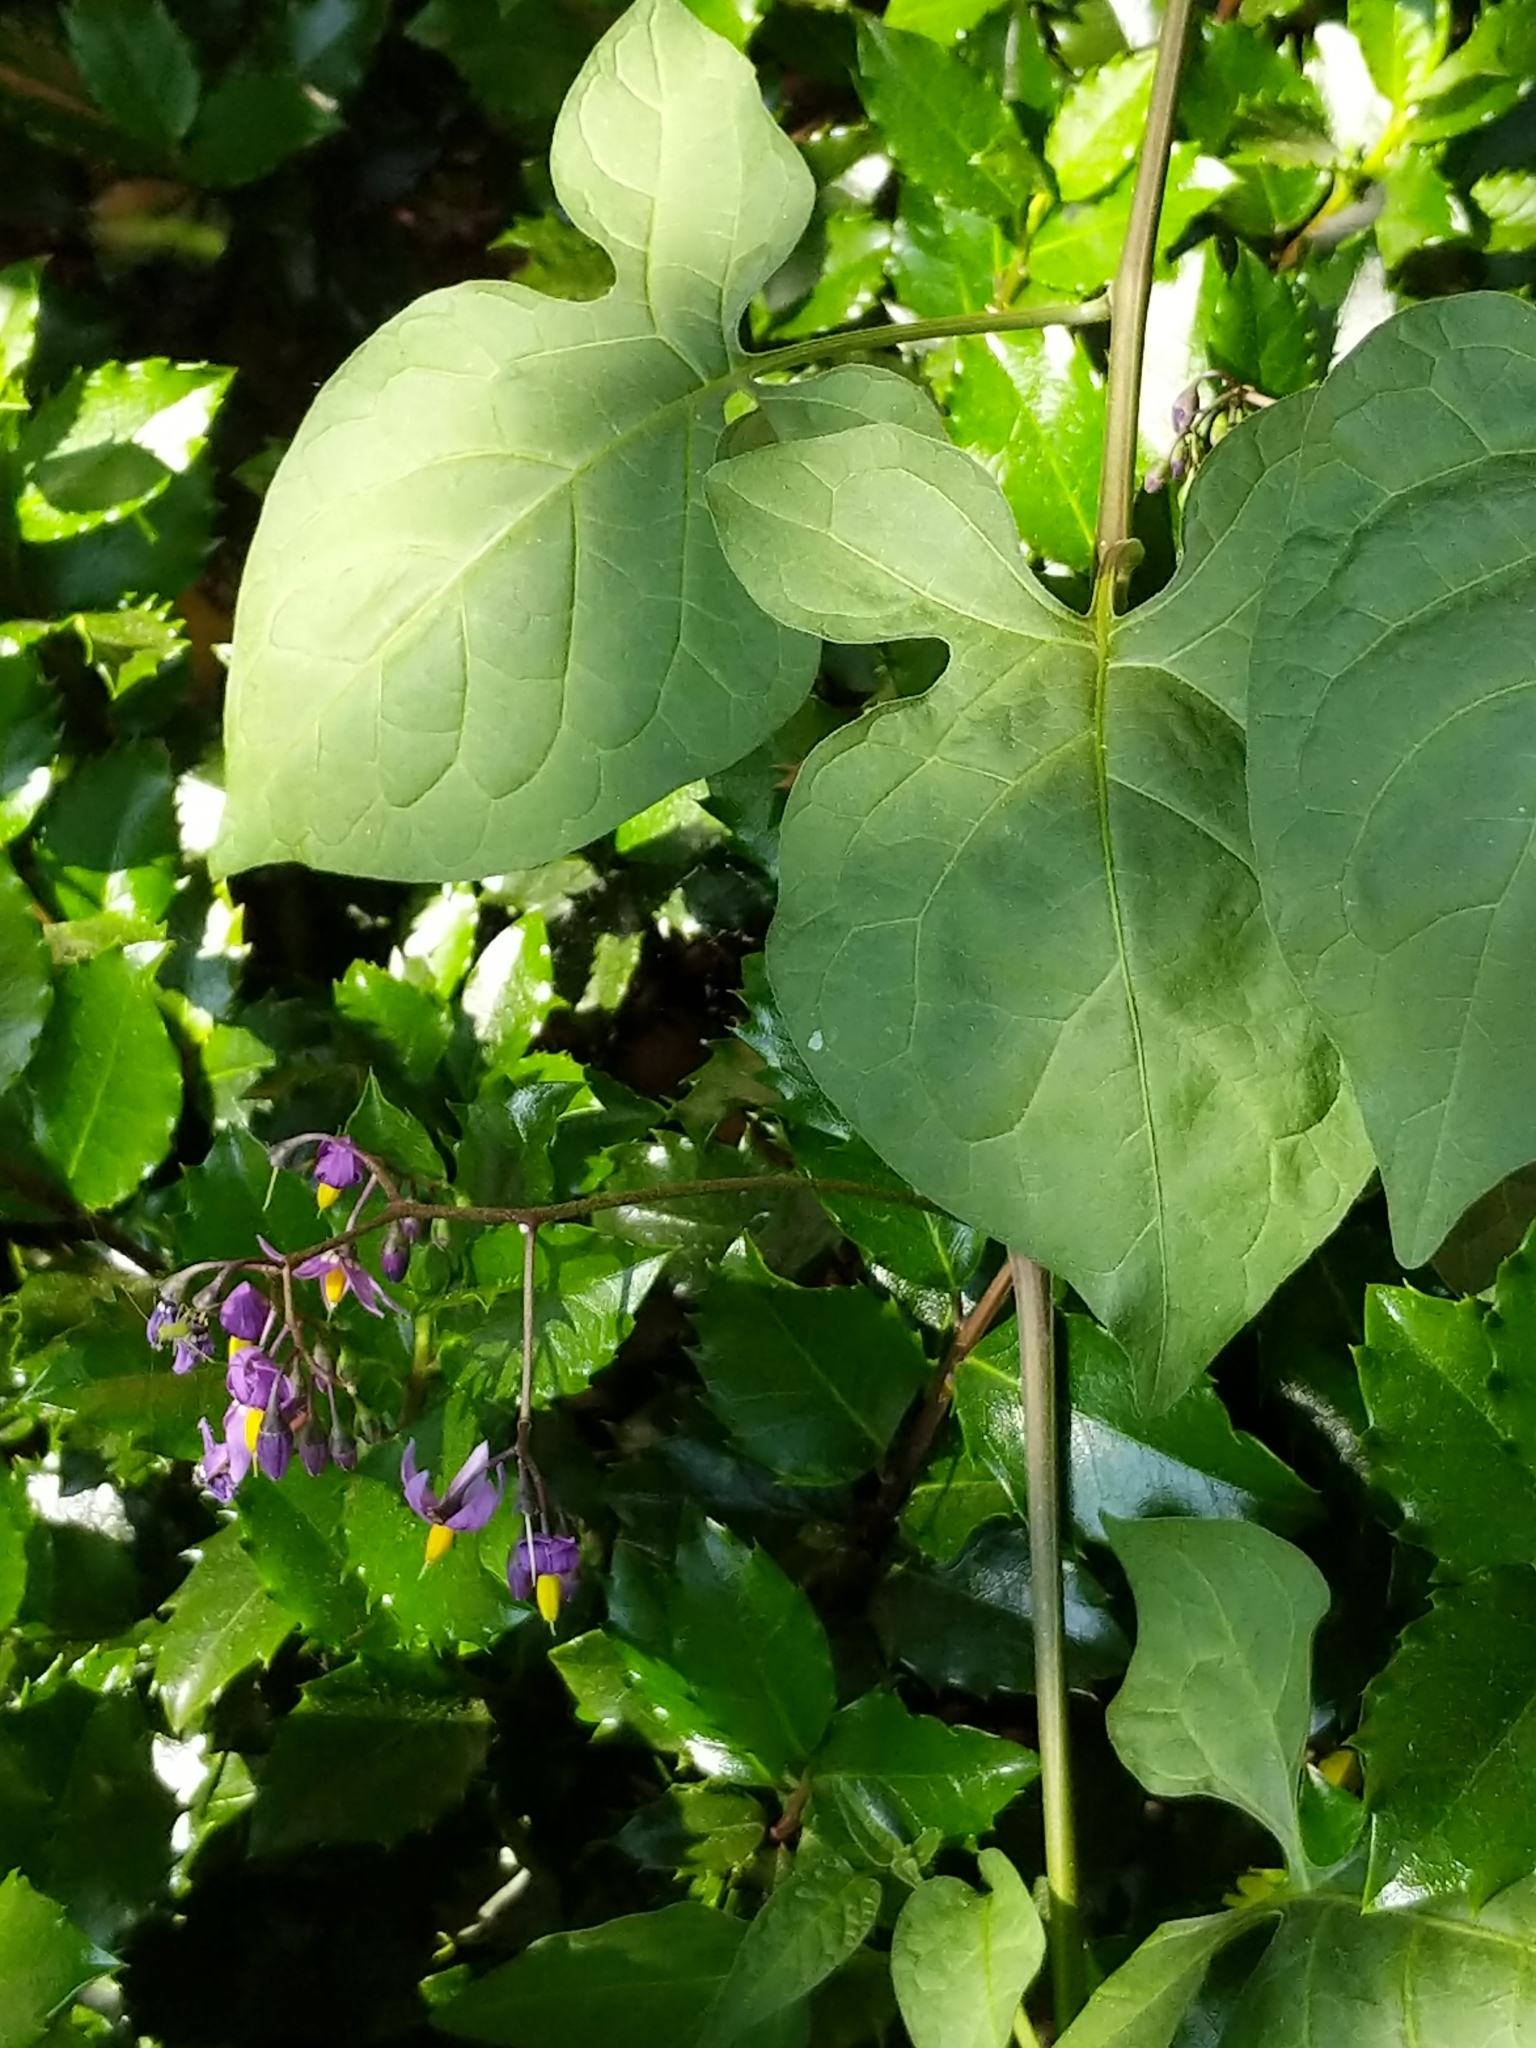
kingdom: Plantae
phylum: Tracheophyta
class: Magnoliopsida
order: Solanales
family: Solanaceae
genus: Solanum
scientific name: Solanum dulcamara
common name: Climbing nightshade
